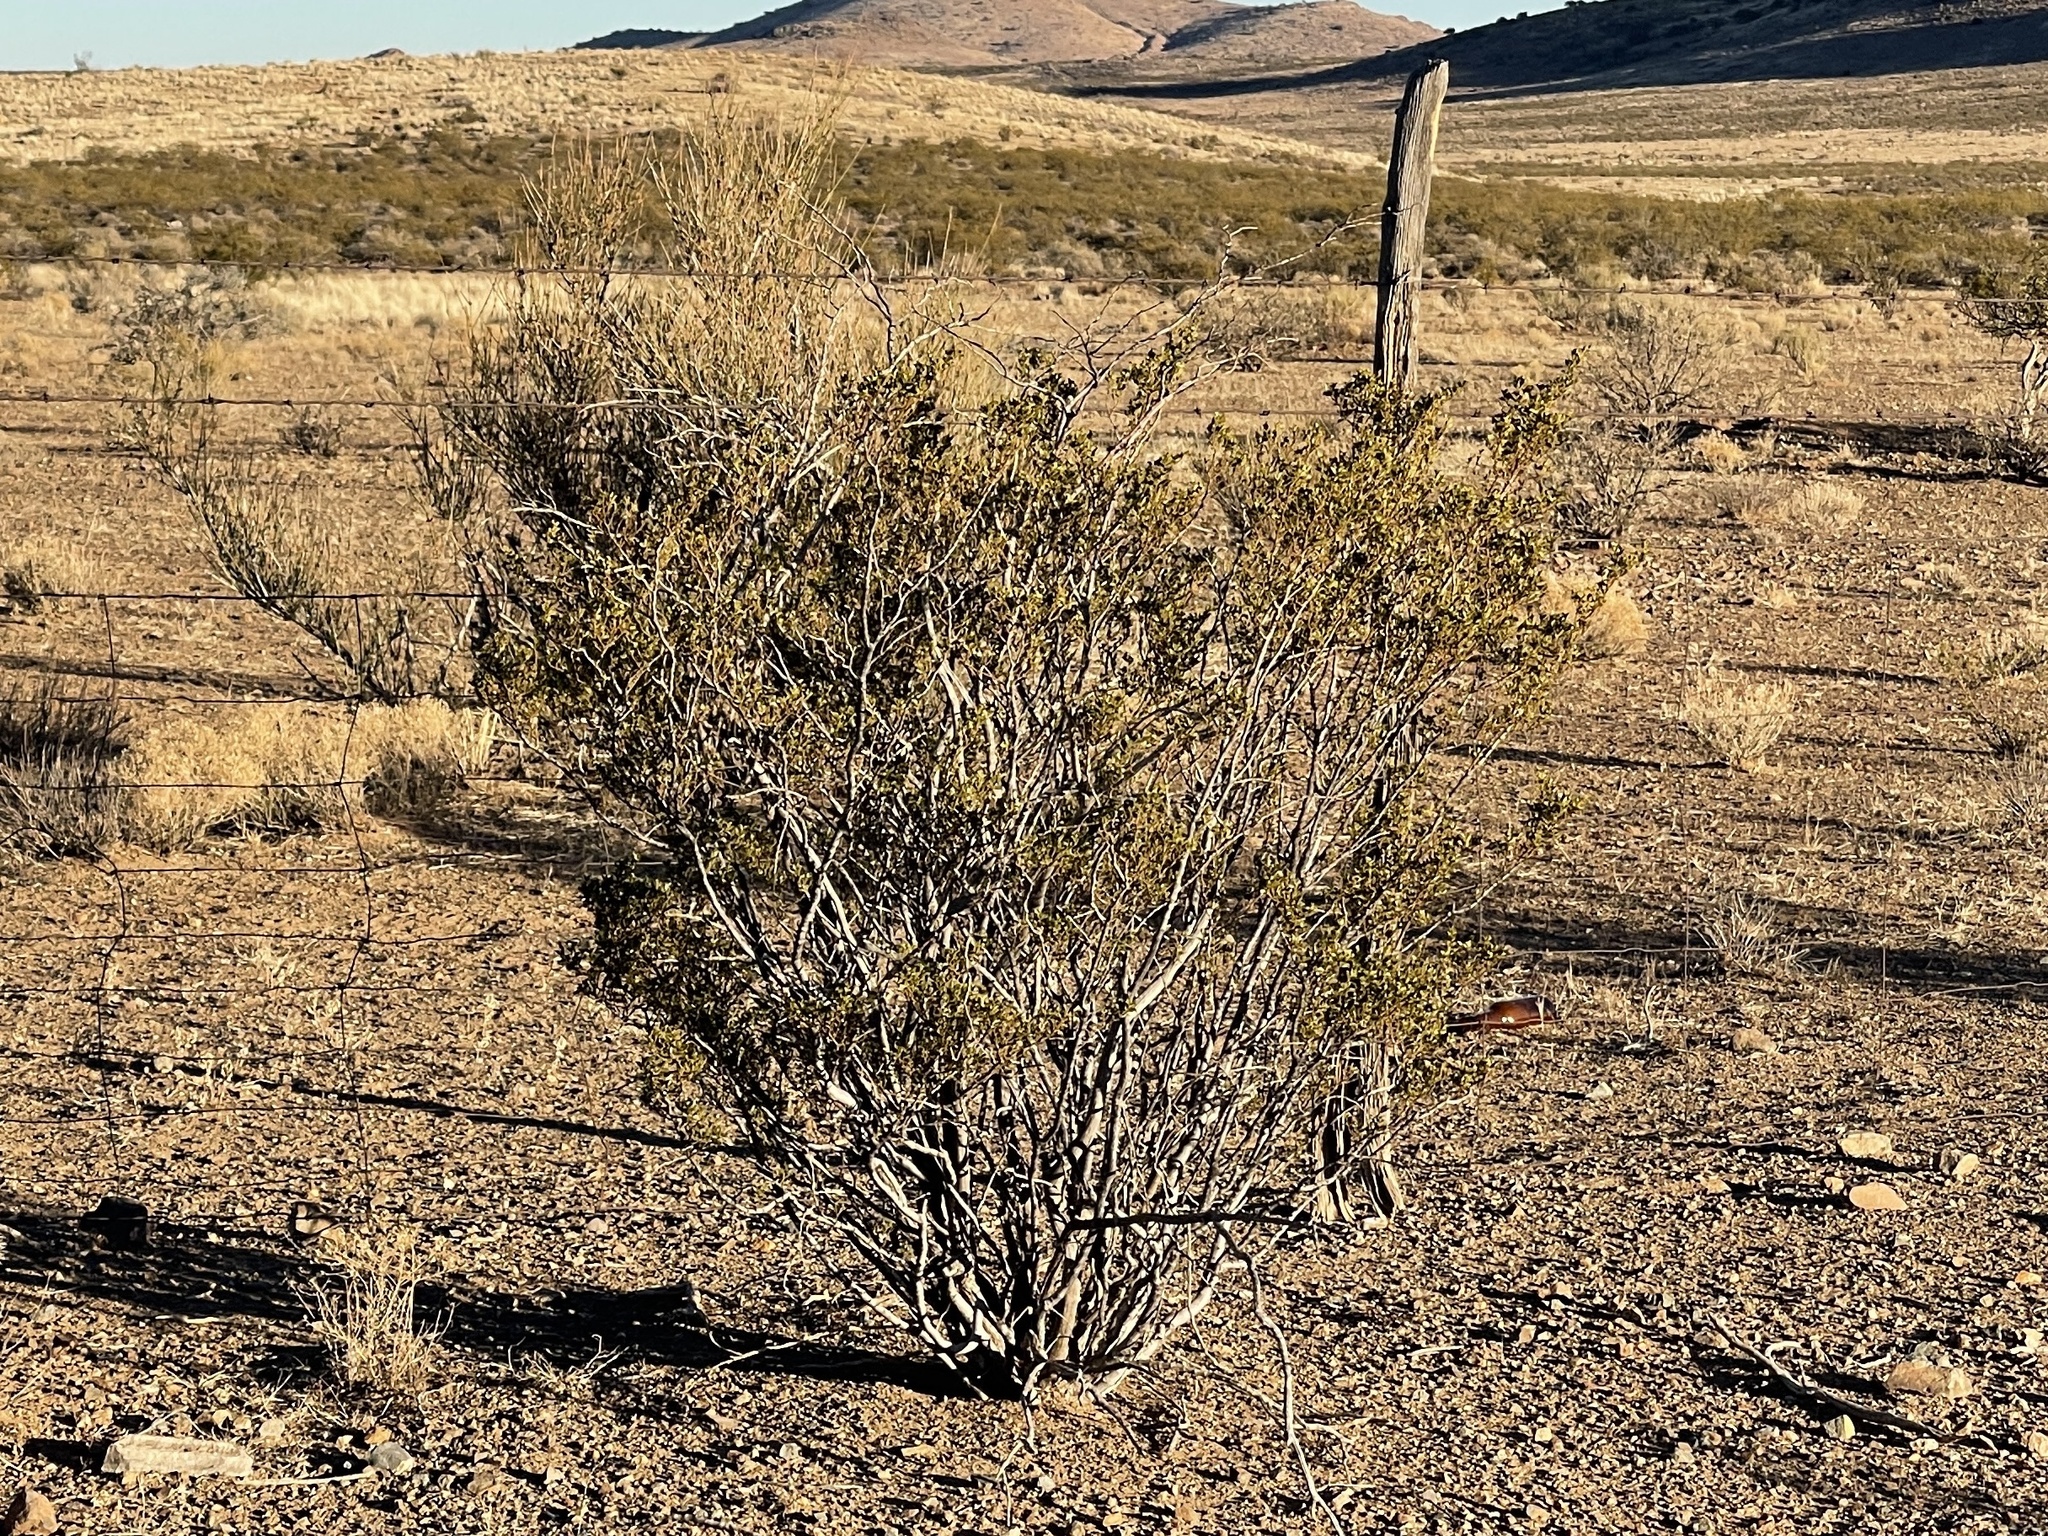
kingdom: Plantae
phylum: Tracheophyta
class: Magnoliopsida
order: Zygophyllales
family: Zygophyllaceae
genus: Larrea
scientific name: Larrea tridentata
